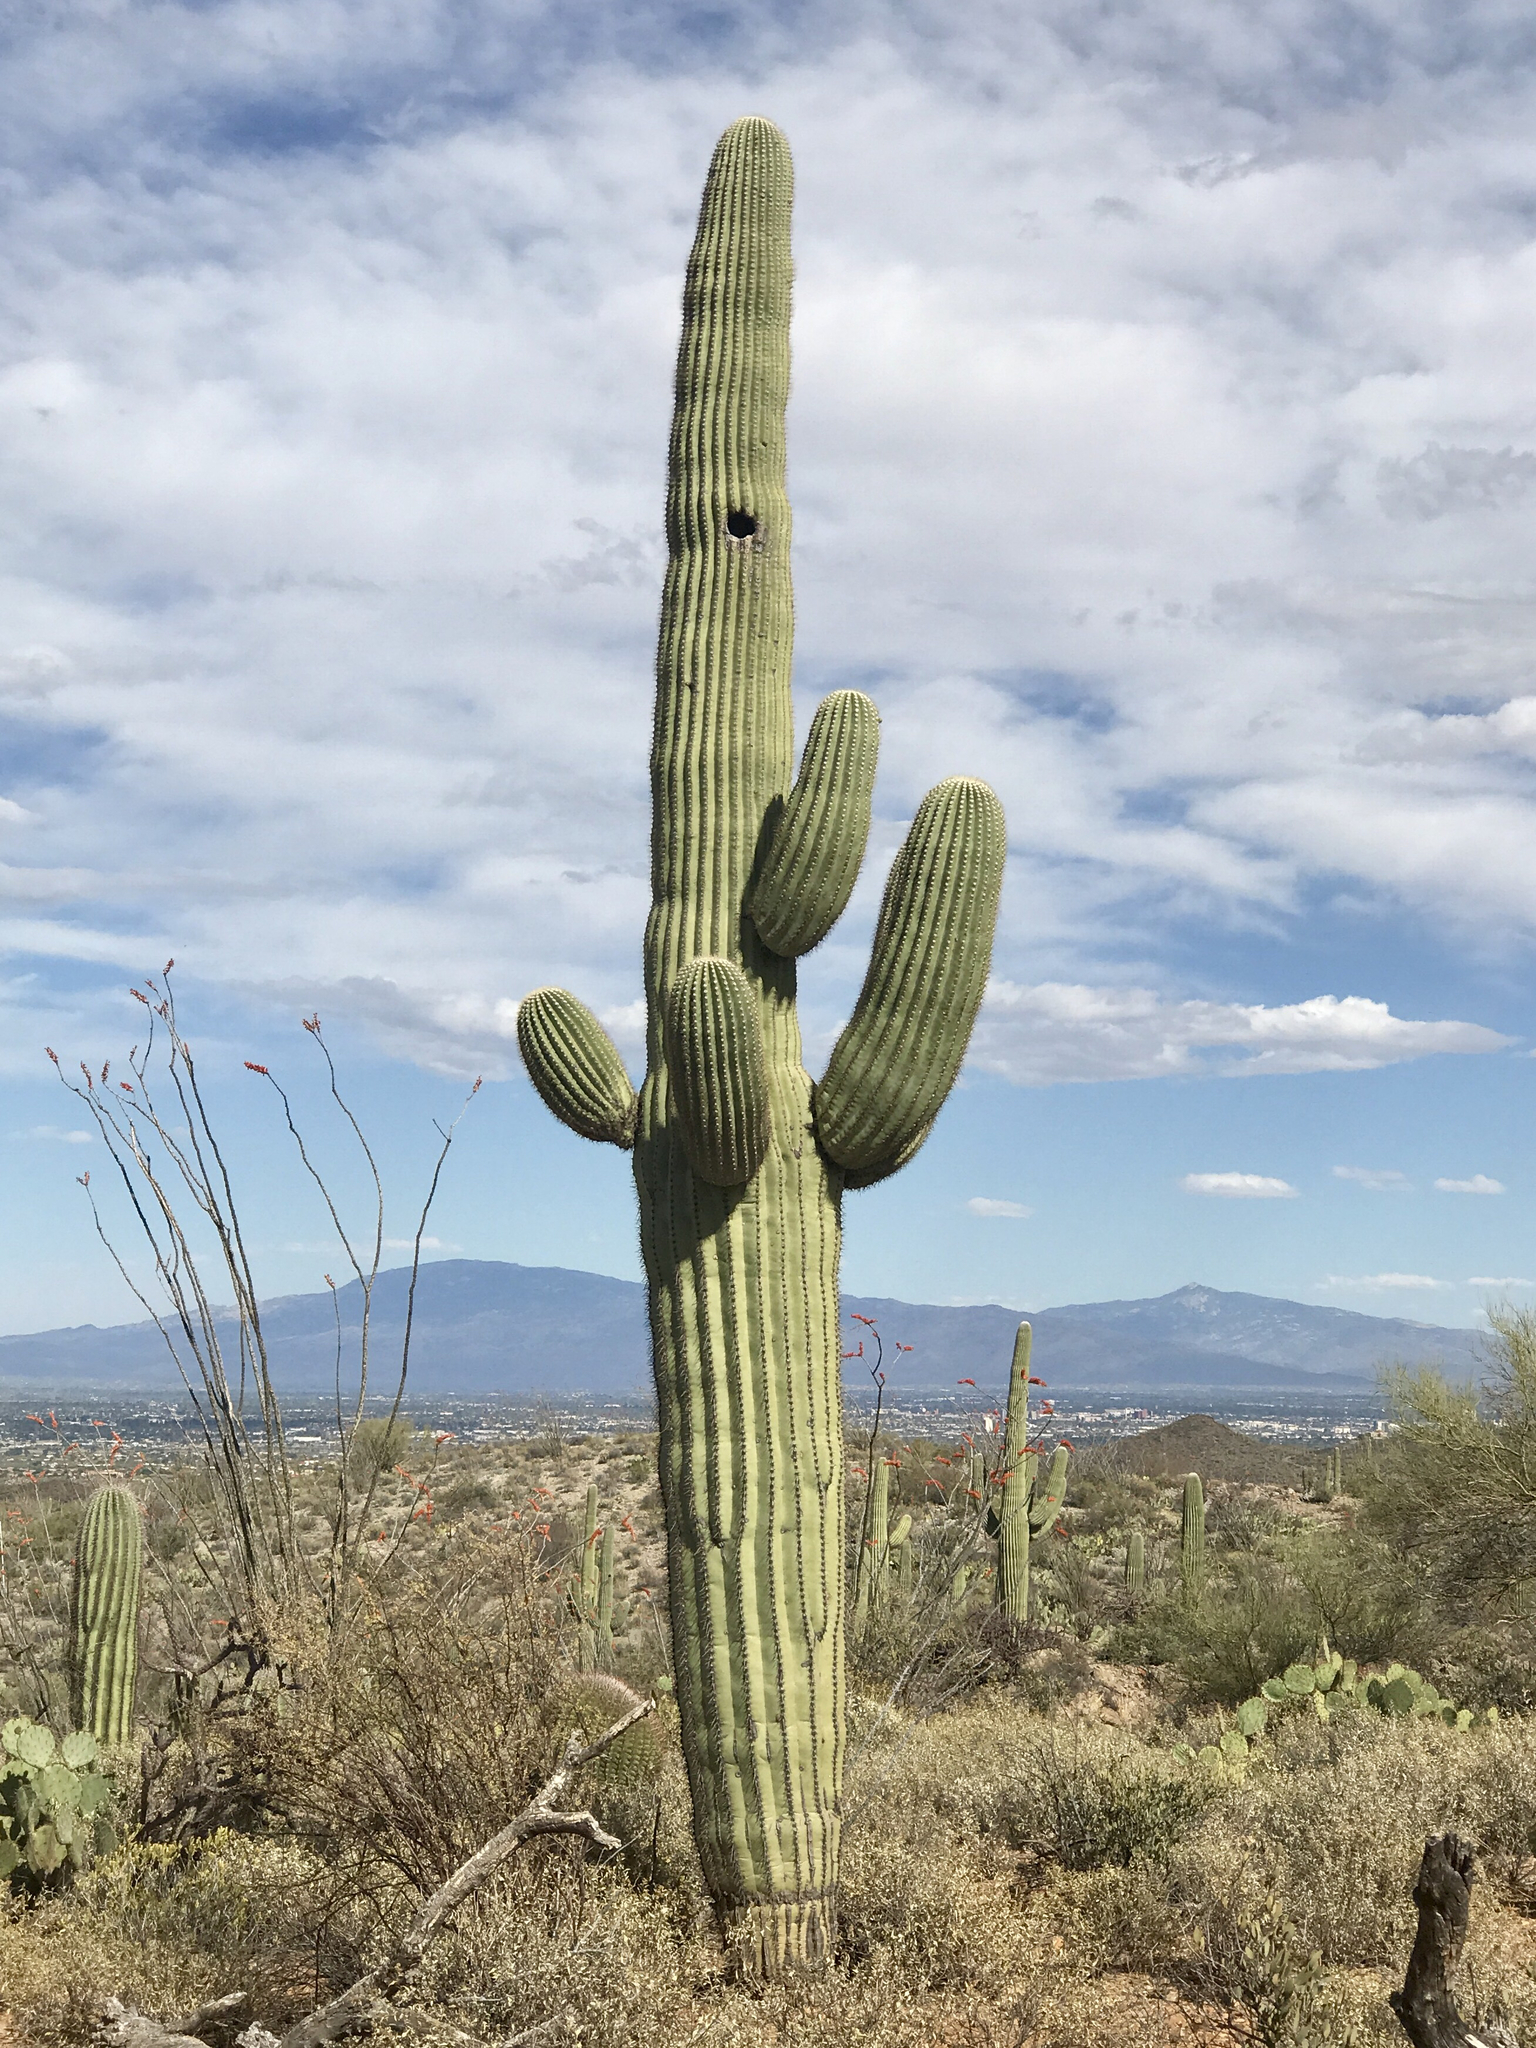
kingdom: Plantae
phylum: Tracheophyta
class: Magnoliopsida
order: Caryophyllales
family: Cactaceae
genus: Carnegiea
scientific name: Carnegiea gigantea
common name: Saguaro
